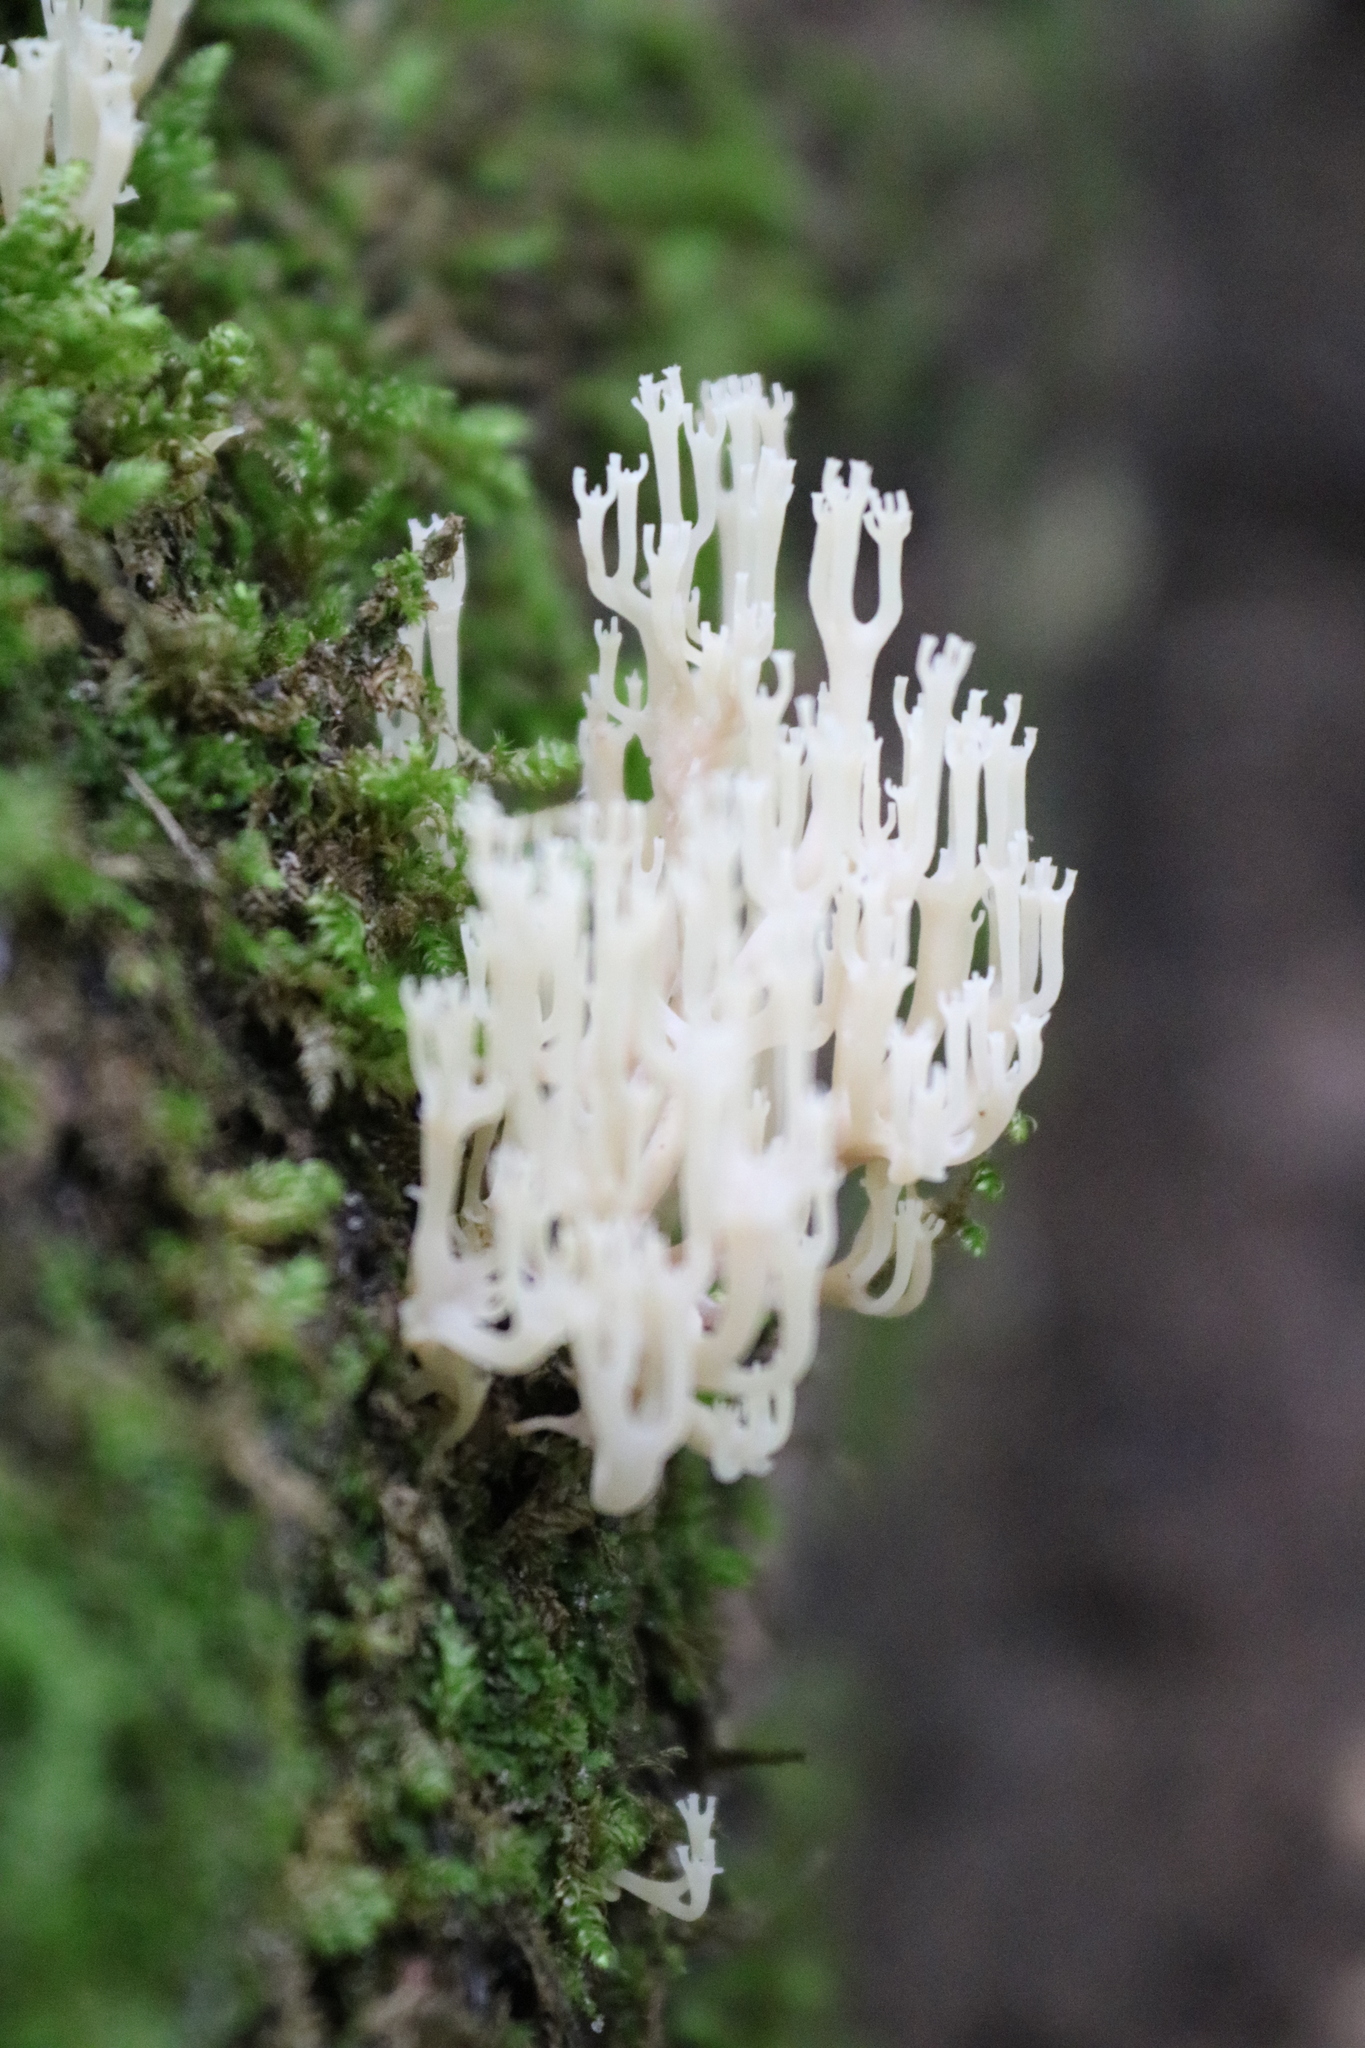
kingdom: Fungi
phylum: Basidiomycota
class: Agaricomycetes
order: Russulales
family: Auriscalpiaceae
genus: Artomyces
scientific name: Artomyces pyxidatus
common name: Crown-tipped coral fungus
